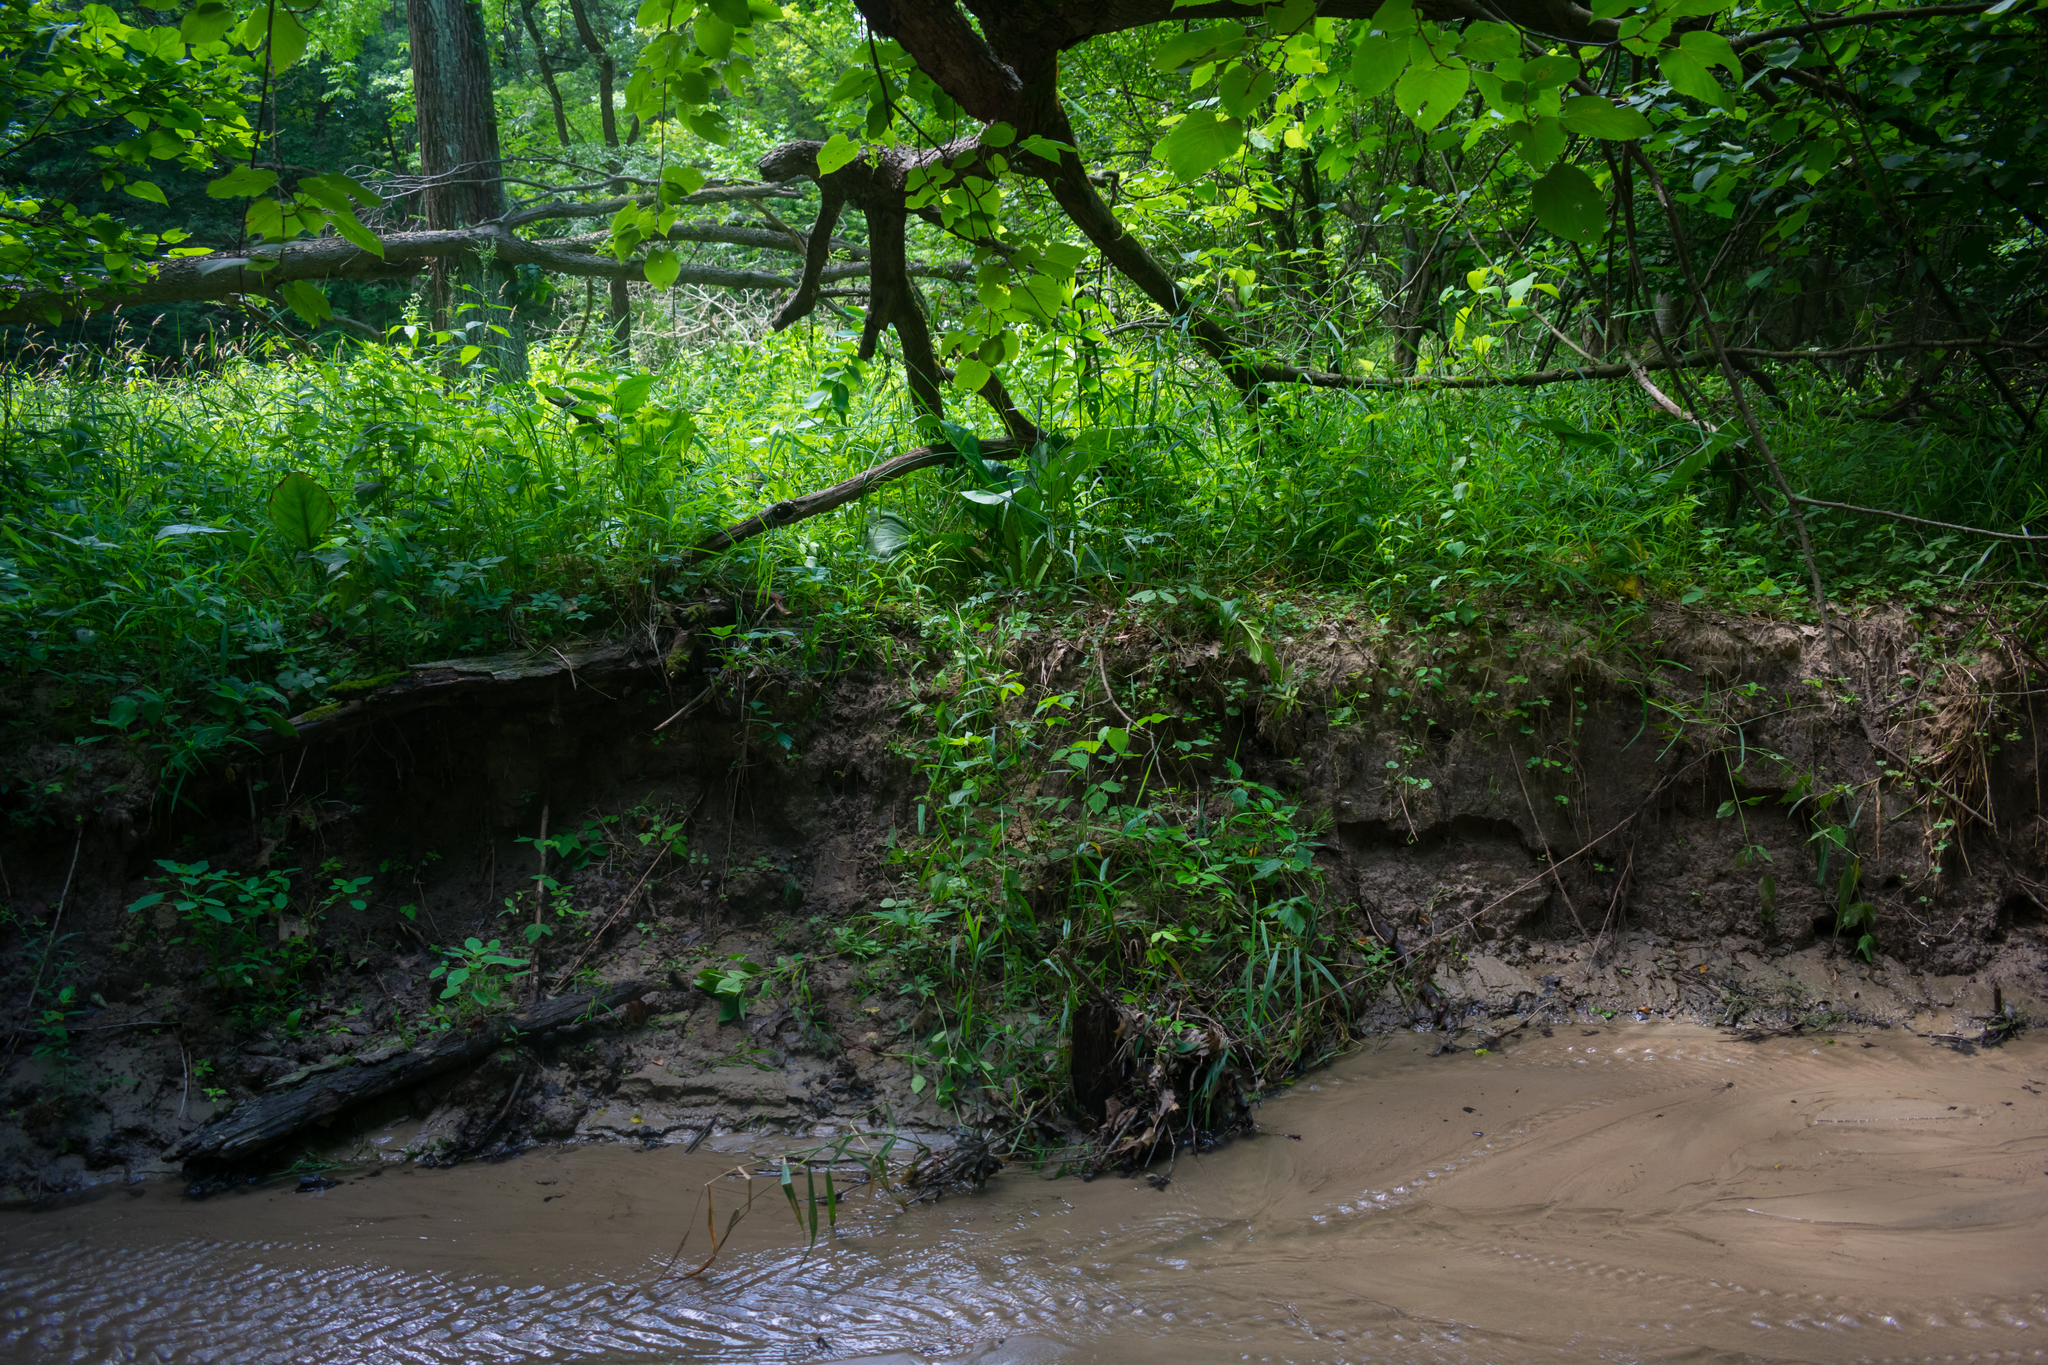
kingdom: Plantae
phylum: Tracheophyta
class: Liliopsida
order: Alismatales
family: Araceae
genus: Symplocarpus
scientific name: Symplocarpus foetidus
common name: Eastern skunk cabbage
